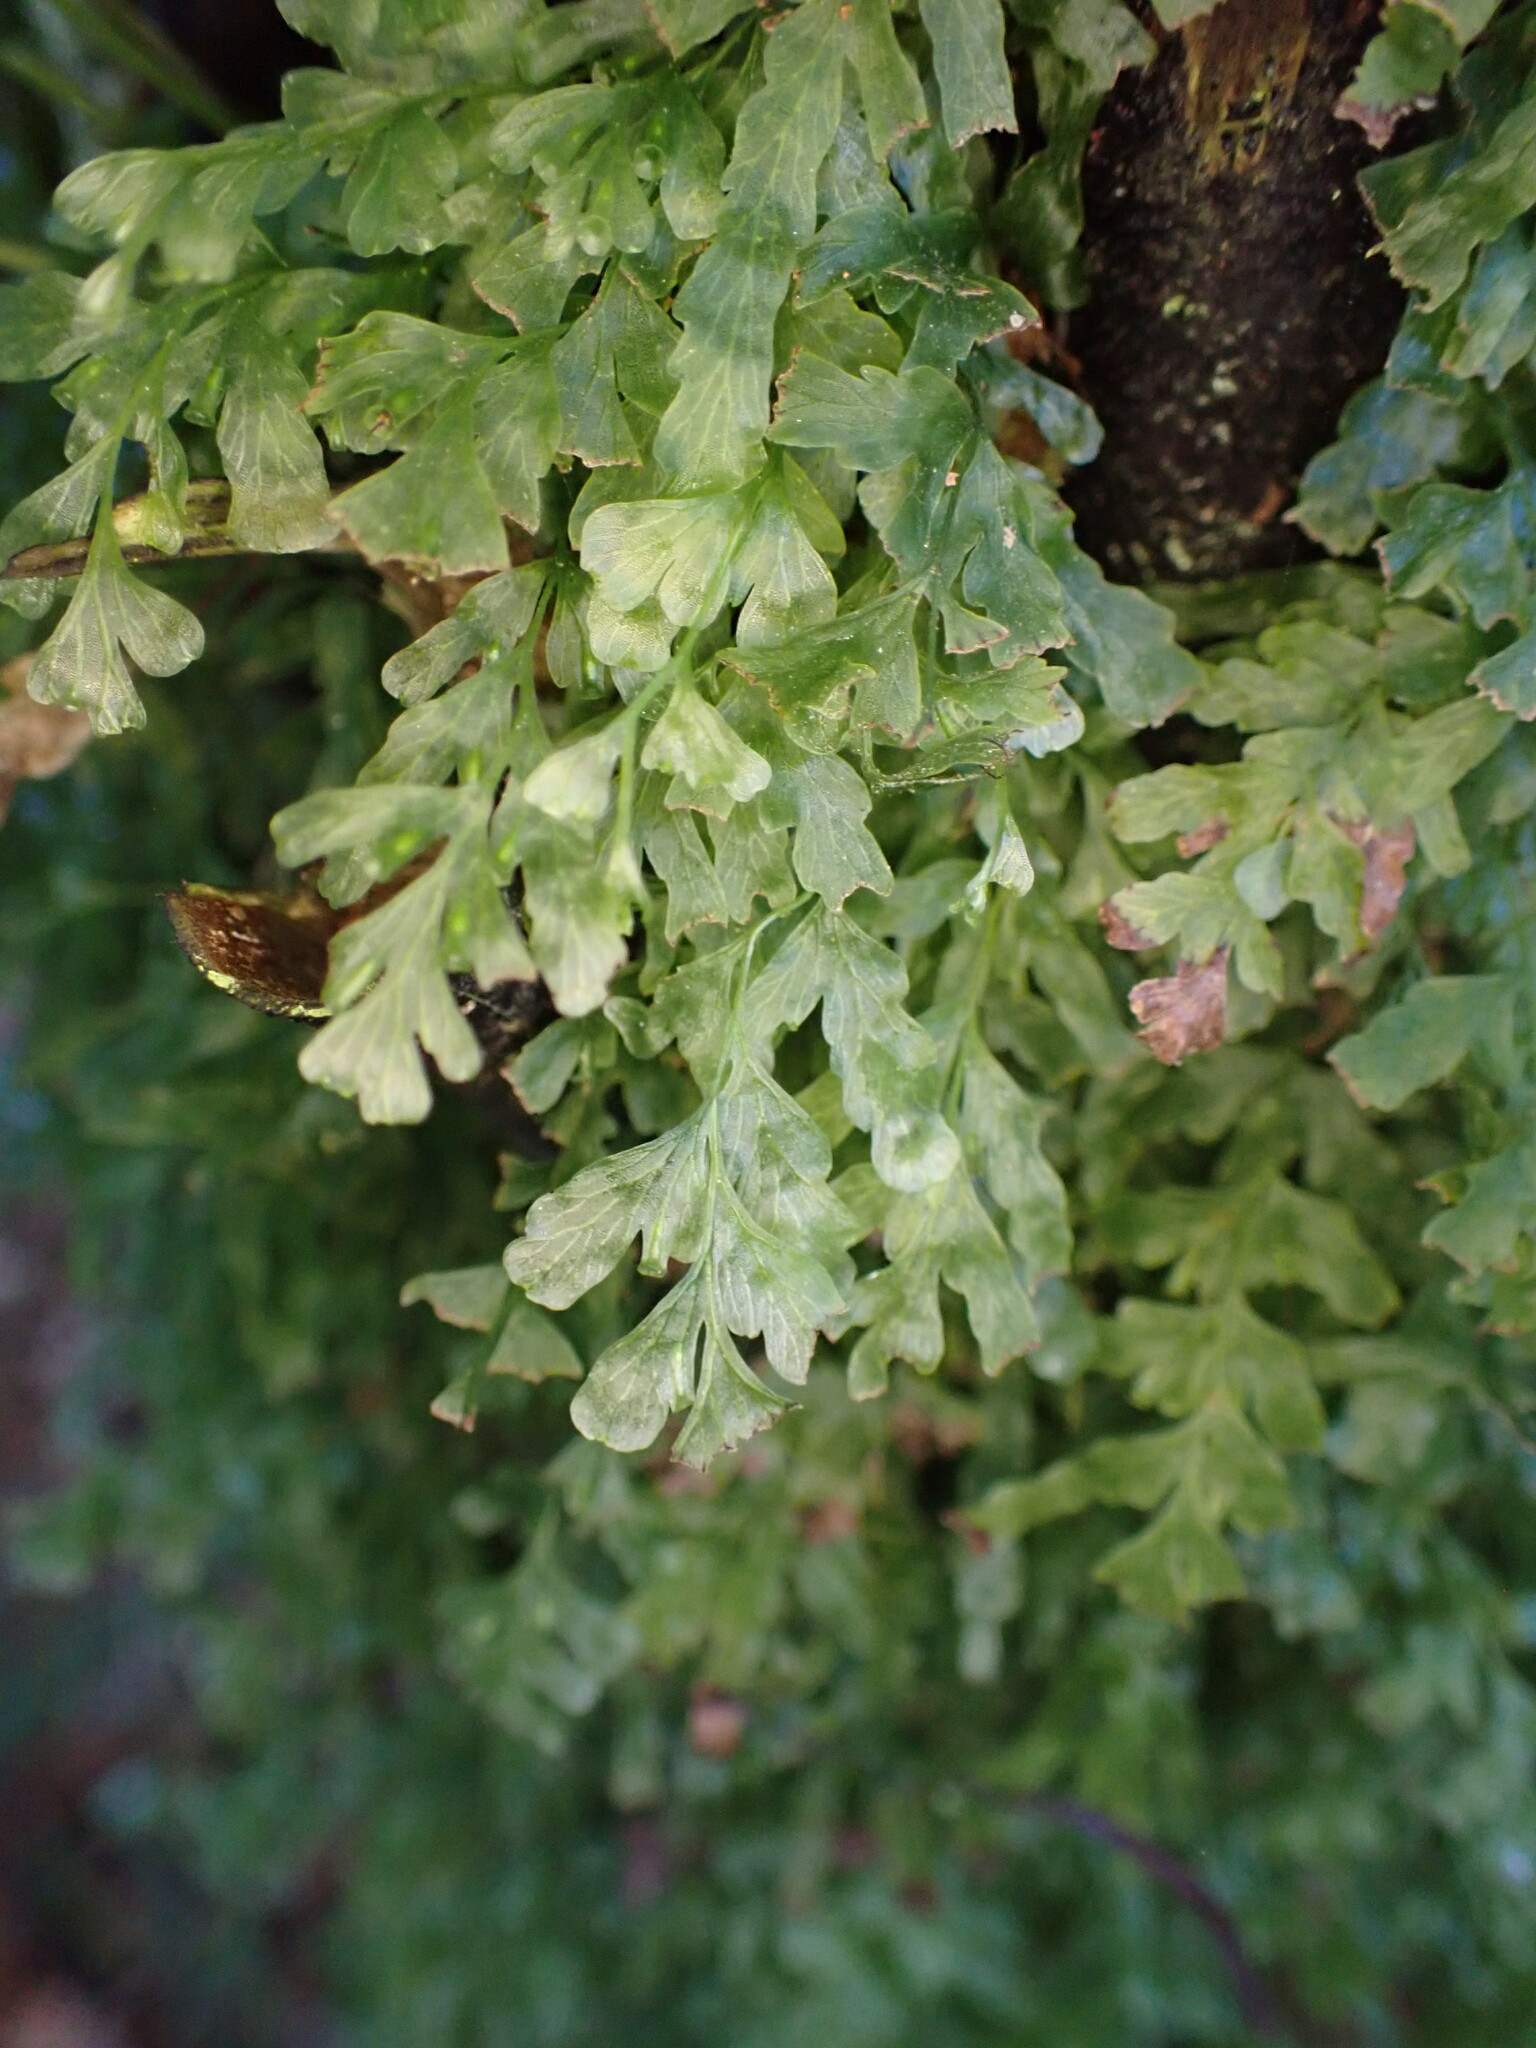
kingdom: Plantae
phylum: Tracheophyta
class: Polypodiopsida
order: Hymenophyllales
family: Hymenophyllaceae
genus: Polyphlebium
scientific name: Polyphlebium venosum
